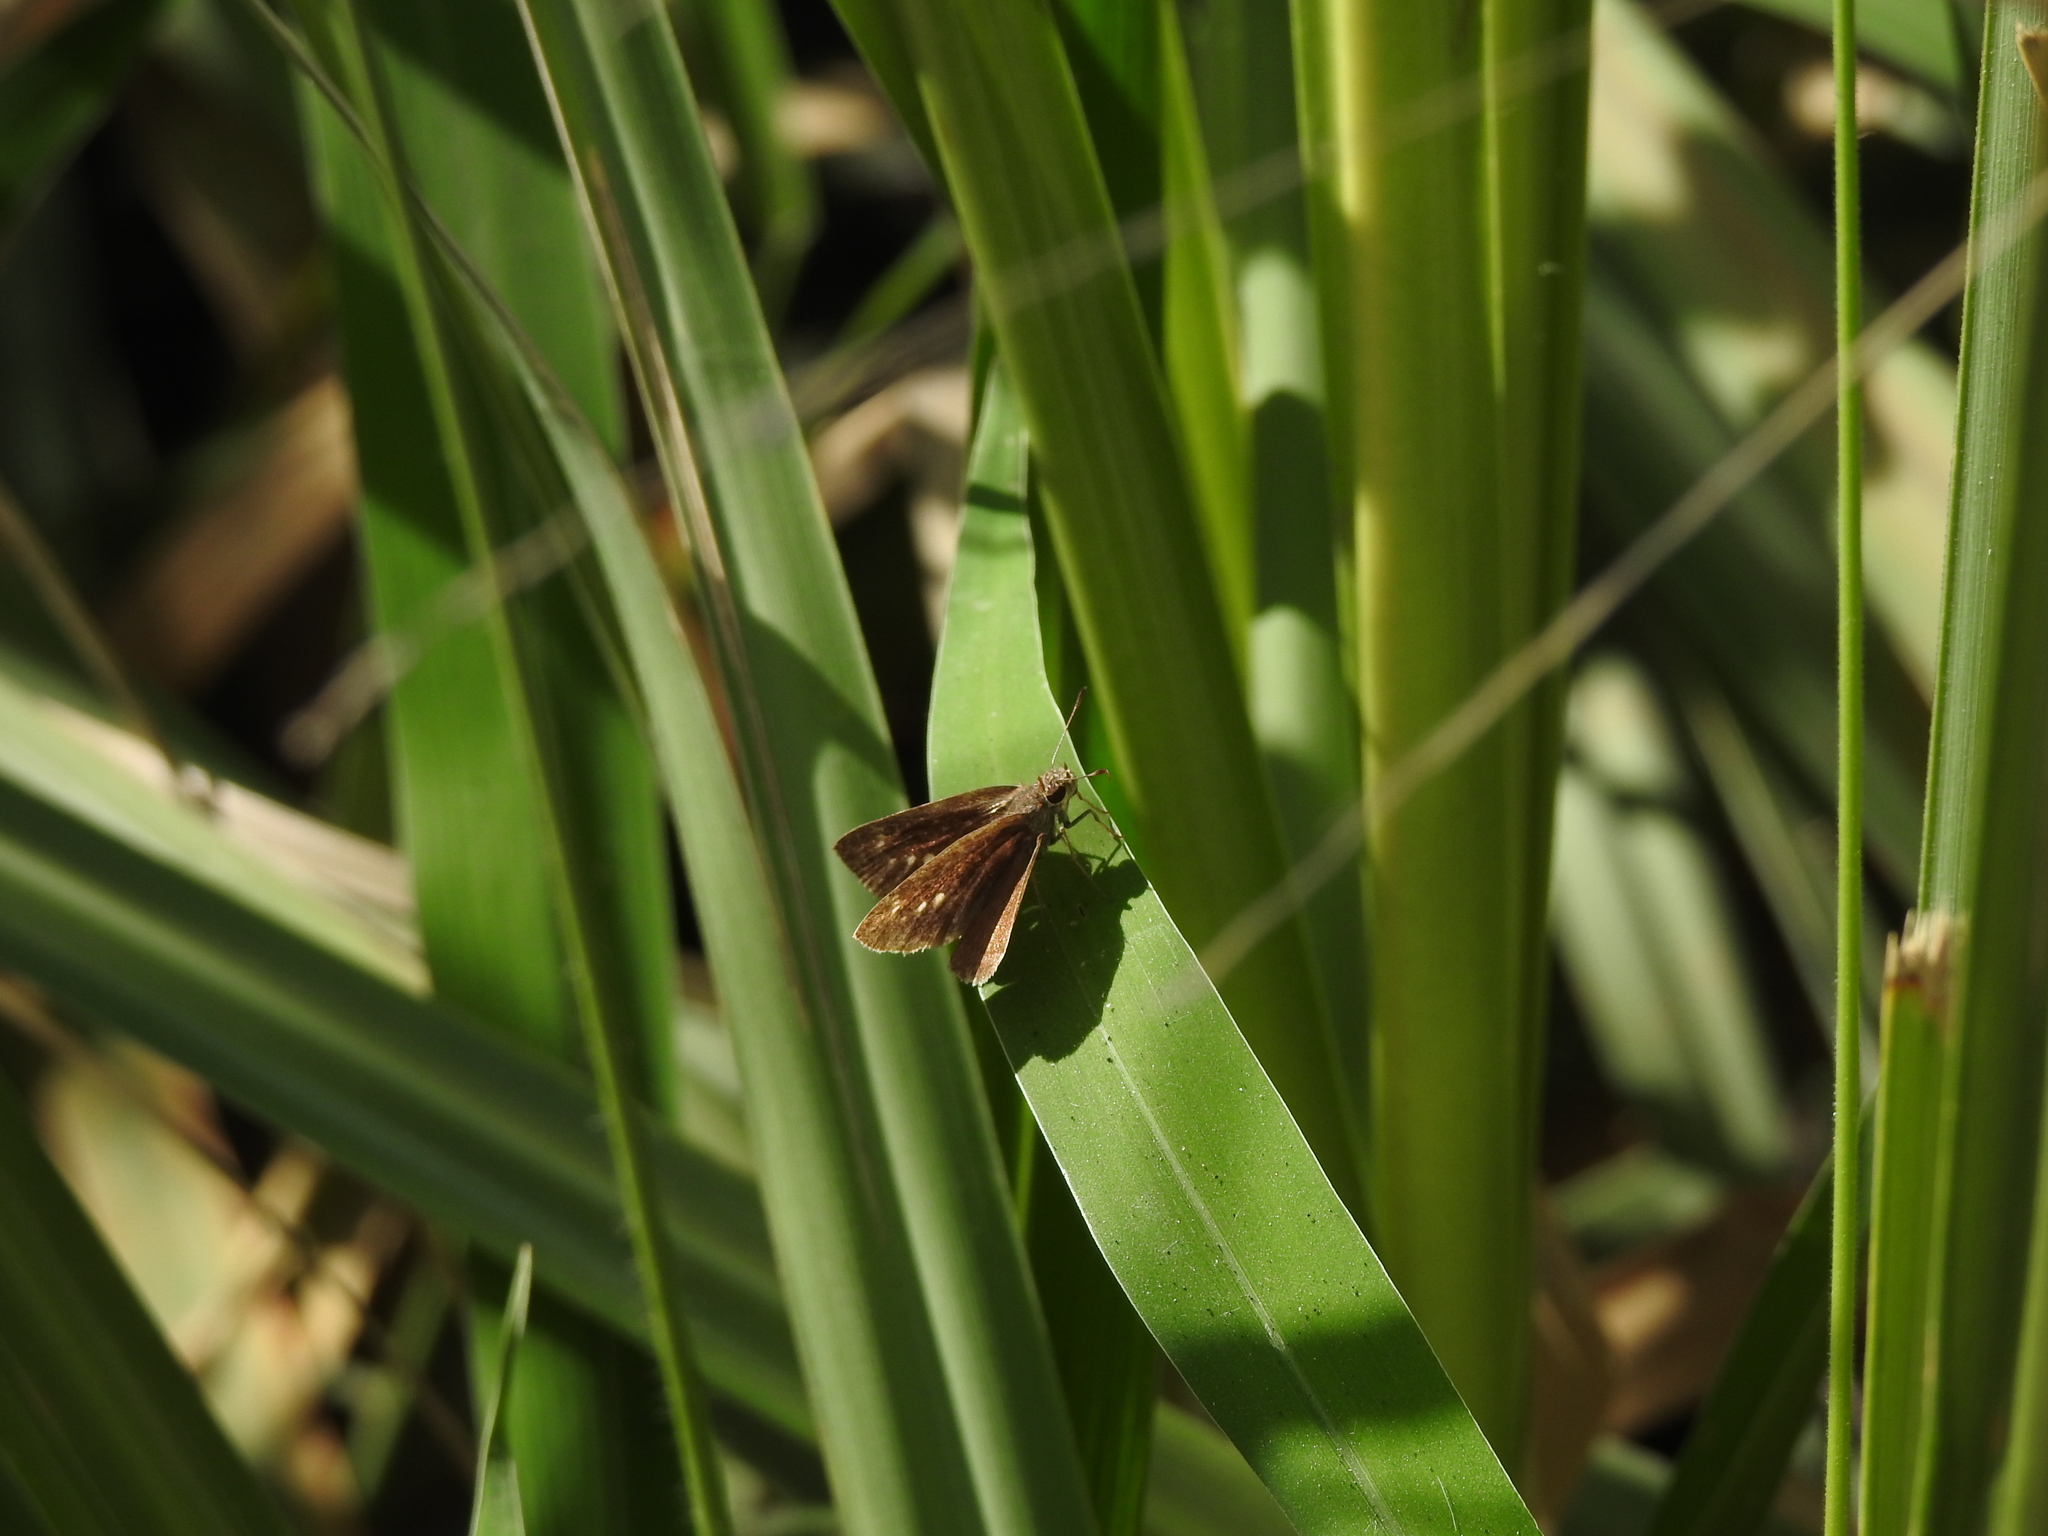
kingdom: Animalia
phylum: Arthropoda
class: Insecta
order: Lepidoptera
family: Hesperiidae
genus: Cymaenes
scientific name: Cymaenes gisca
